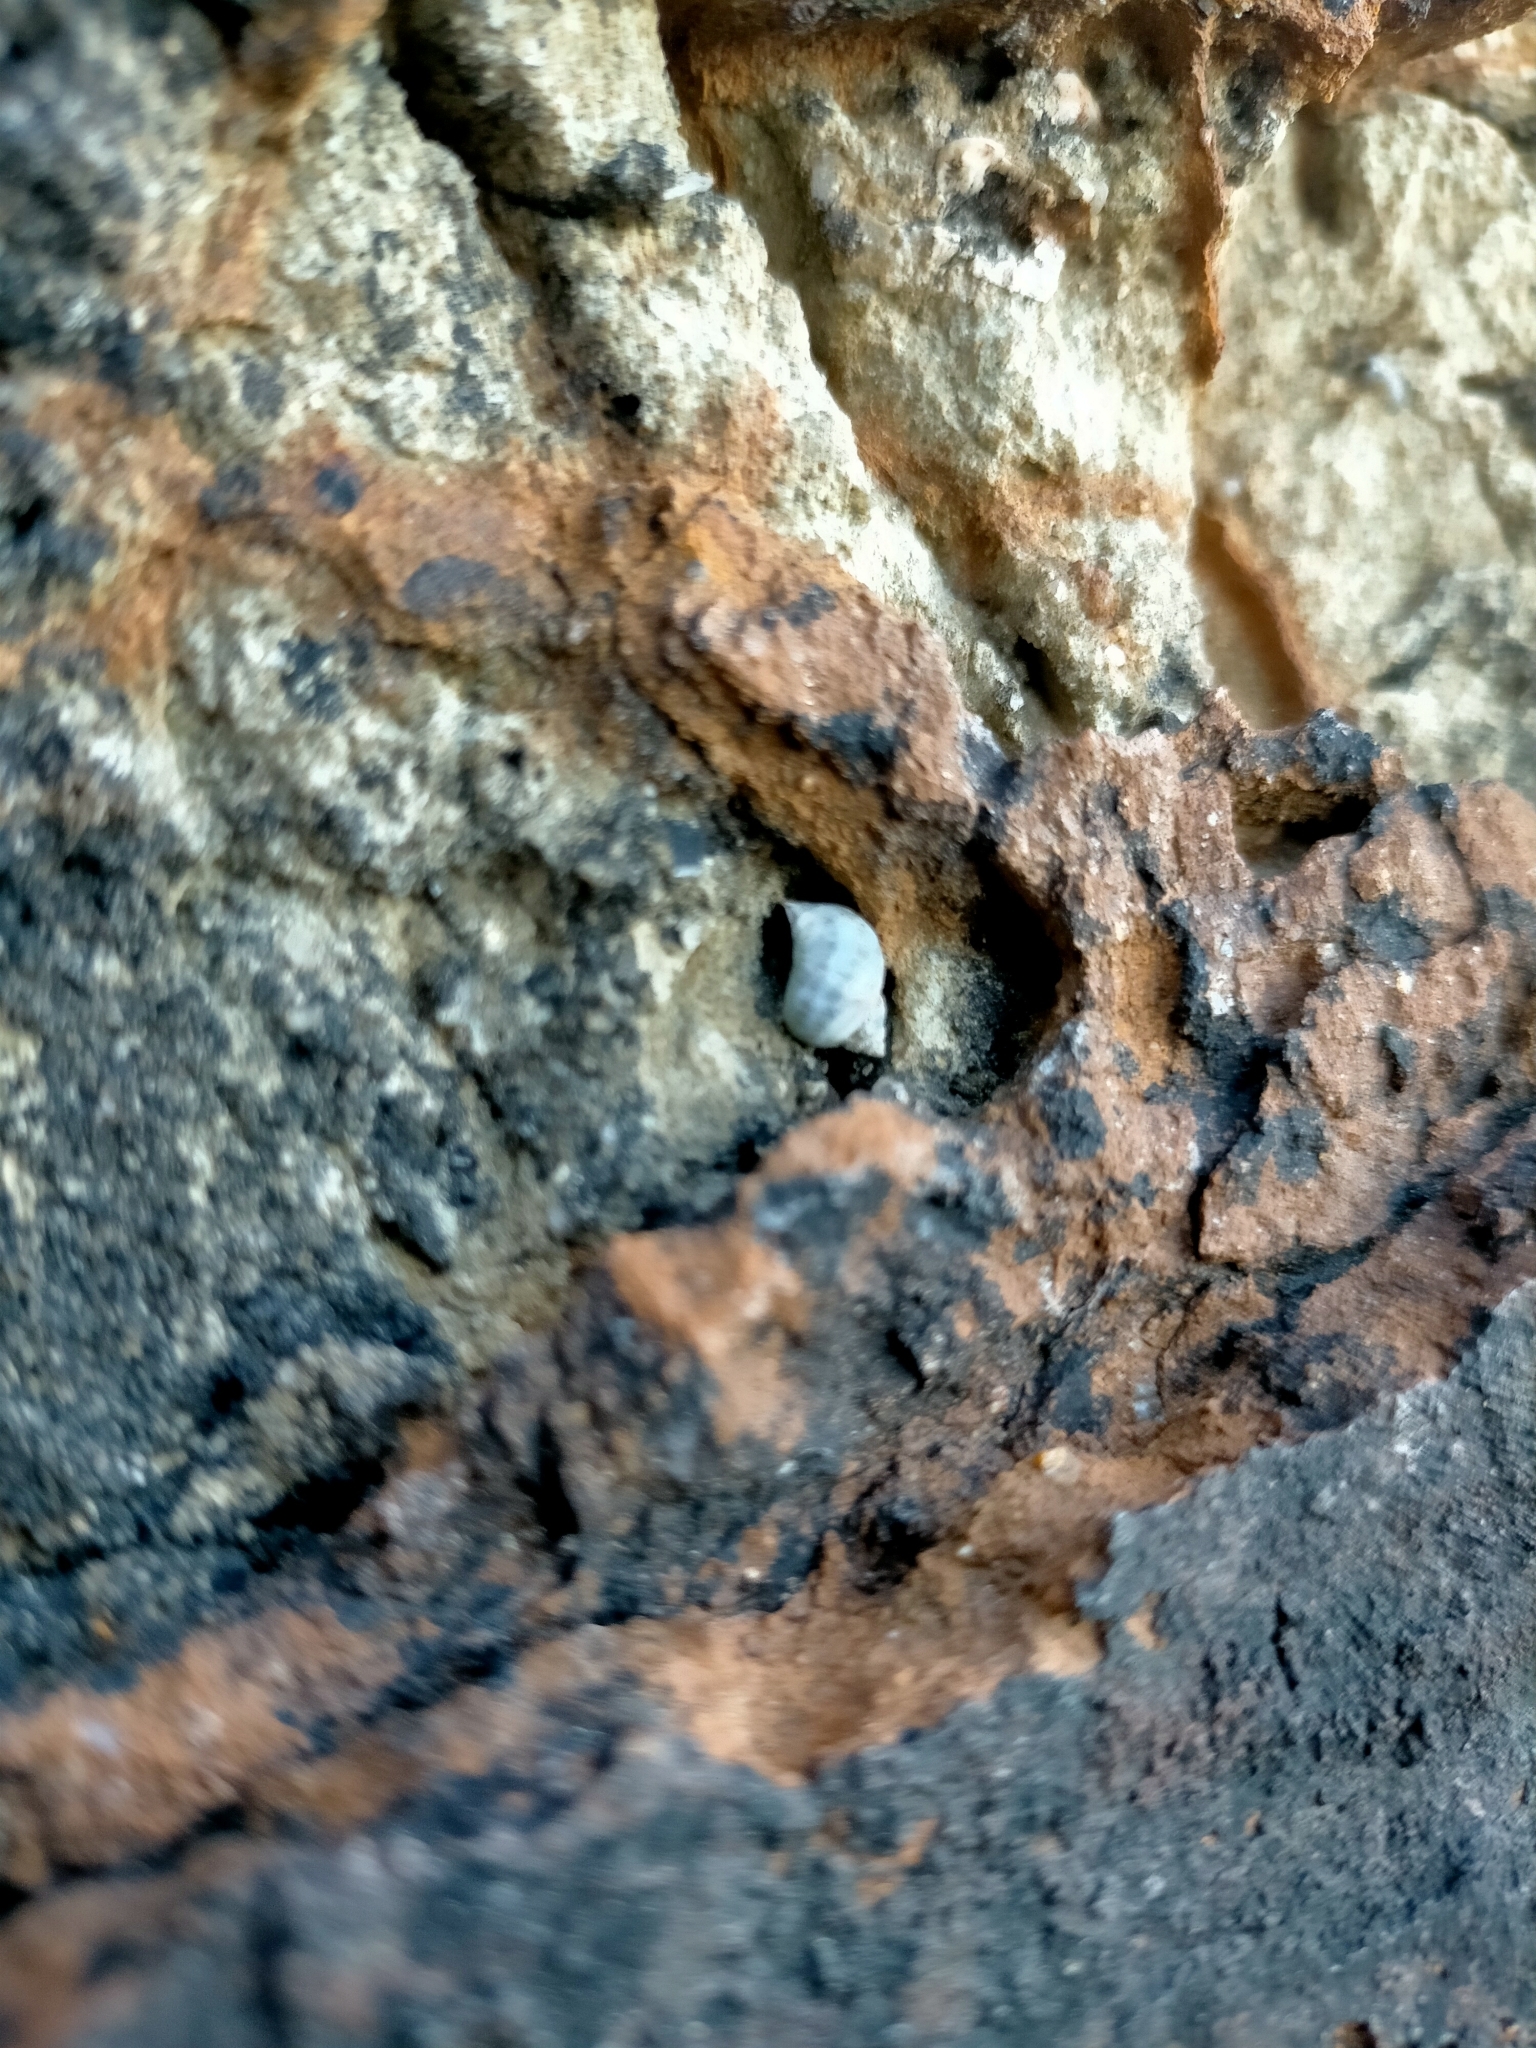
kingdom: Animalia
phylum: Mollusca
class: Gastropoda
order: Littorinimorpha
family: Littorinidae
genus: Austrolittorina
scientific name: Austrolittorina unifasciata
